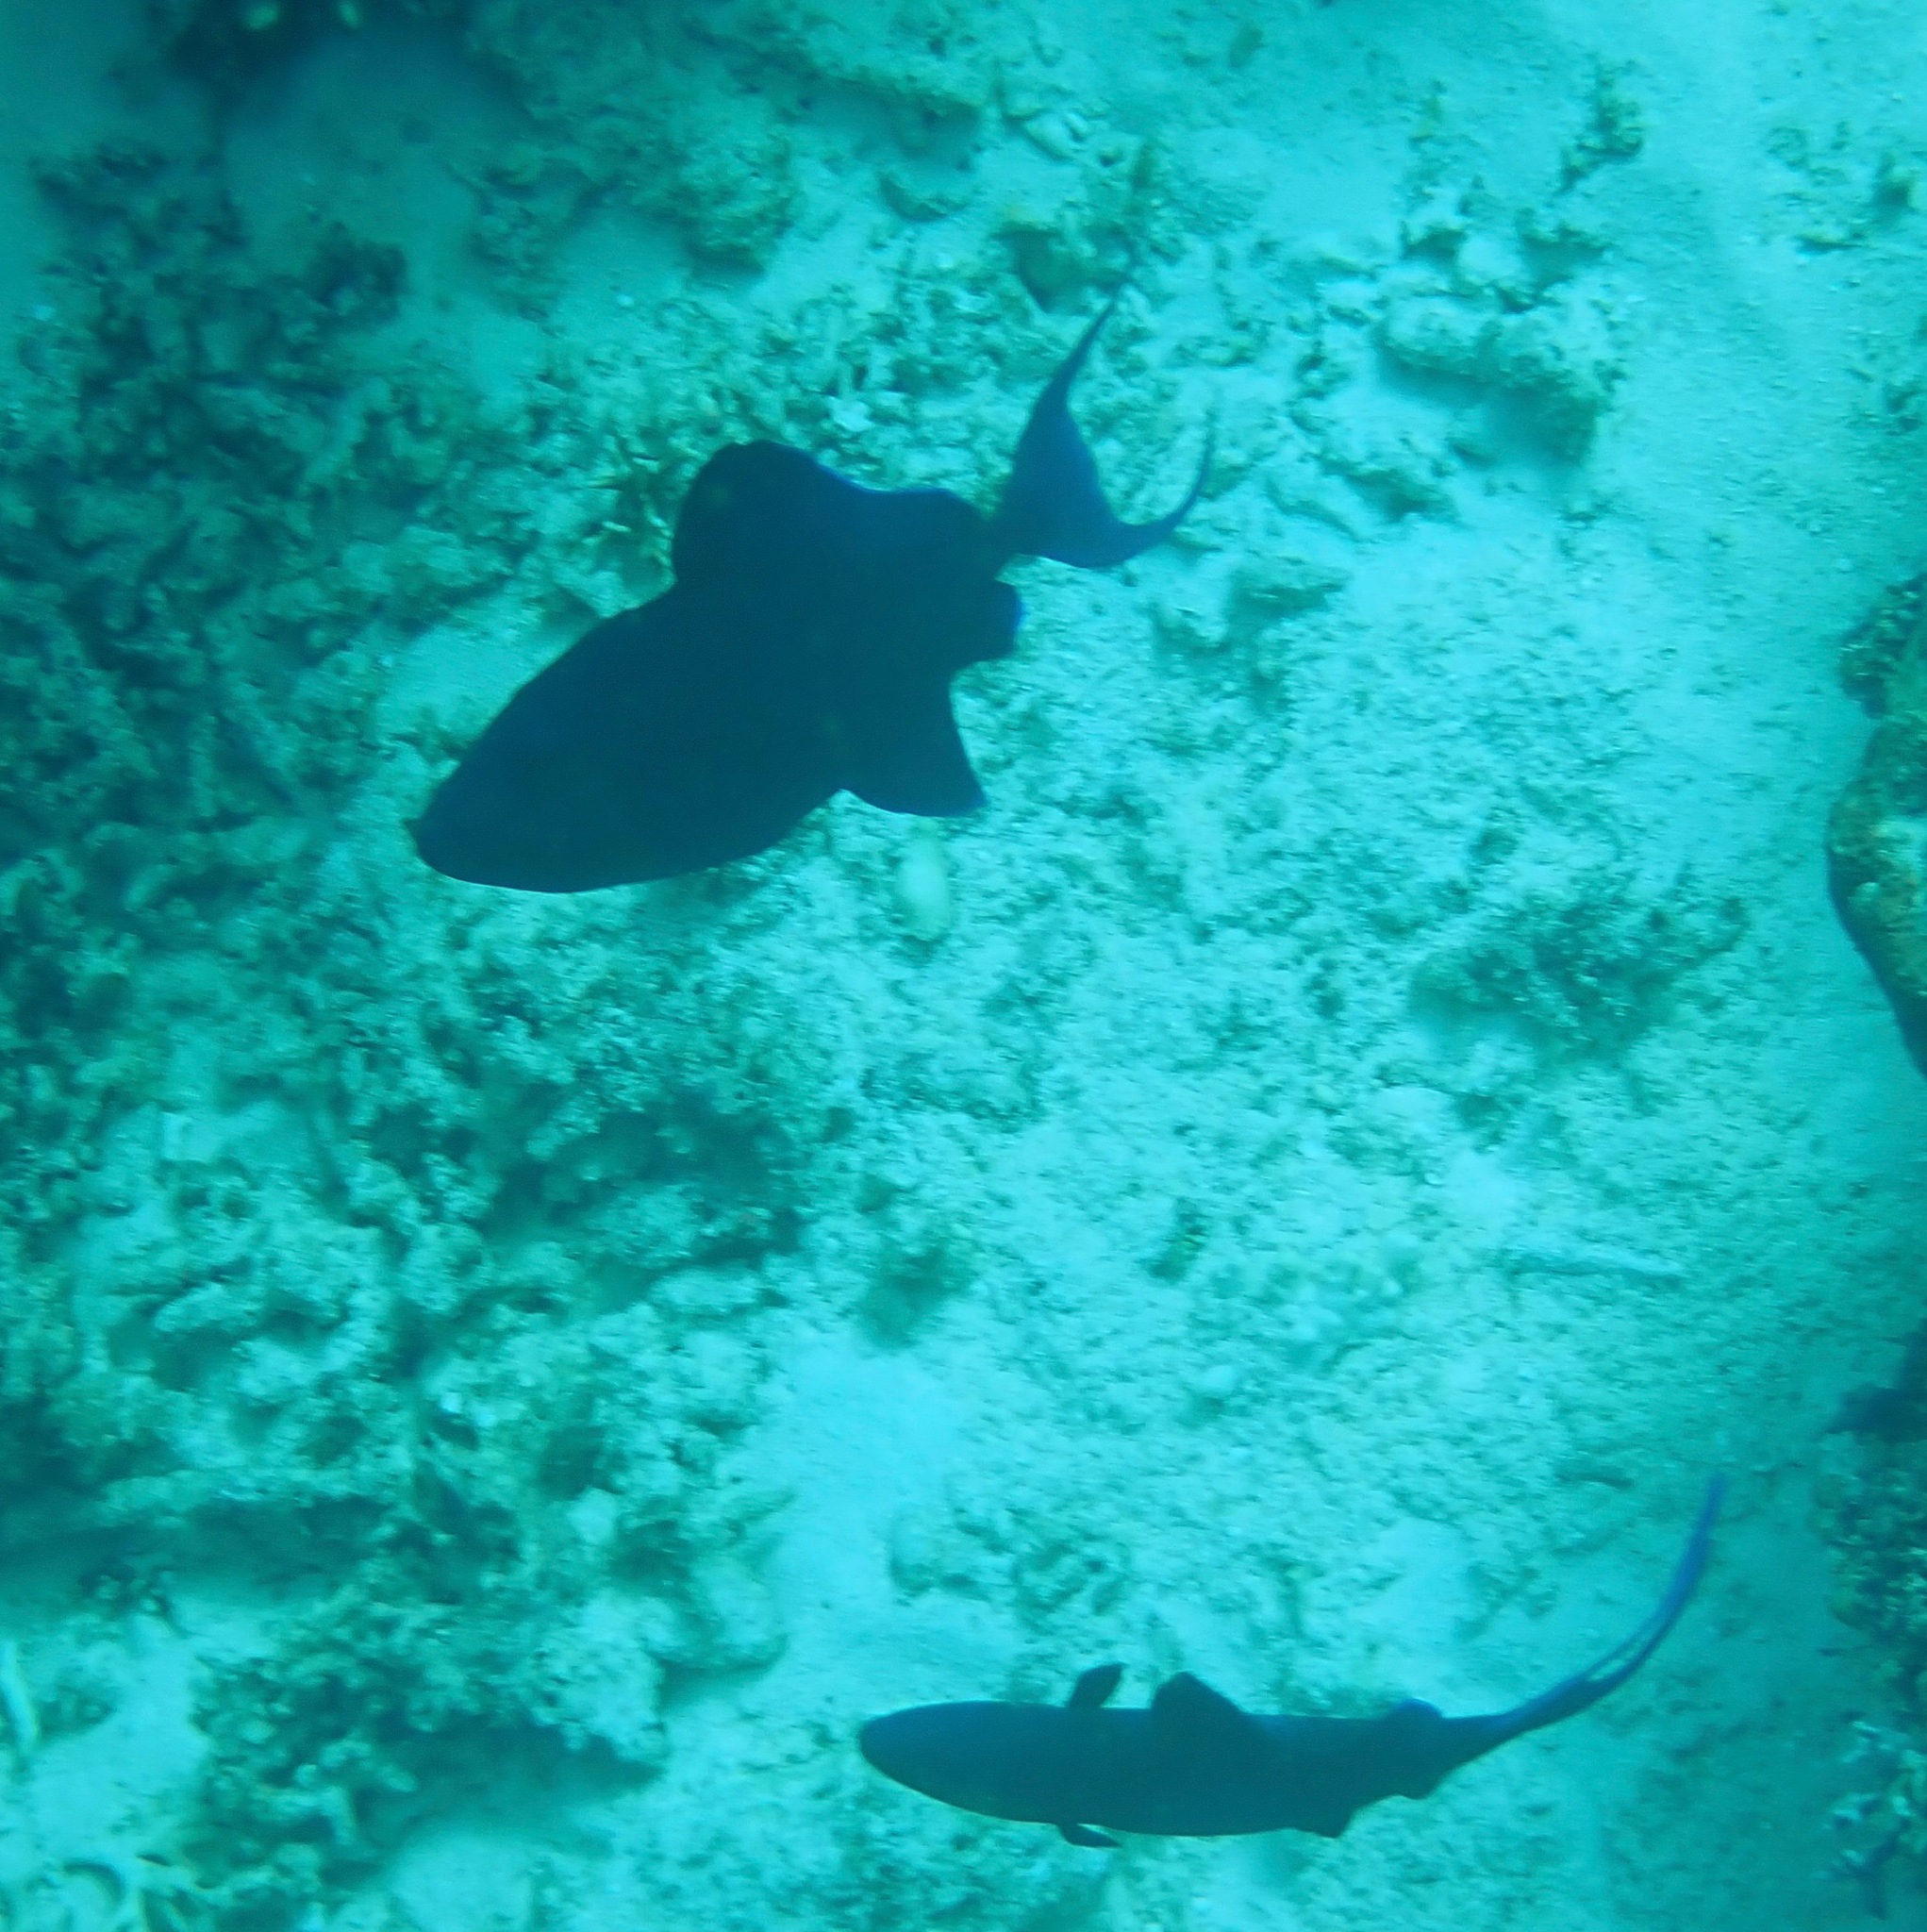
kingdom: Animalia
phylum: Chordata
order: Tetraodontiformes
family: Balistidae
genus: Odonus
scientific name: Odonus niger
